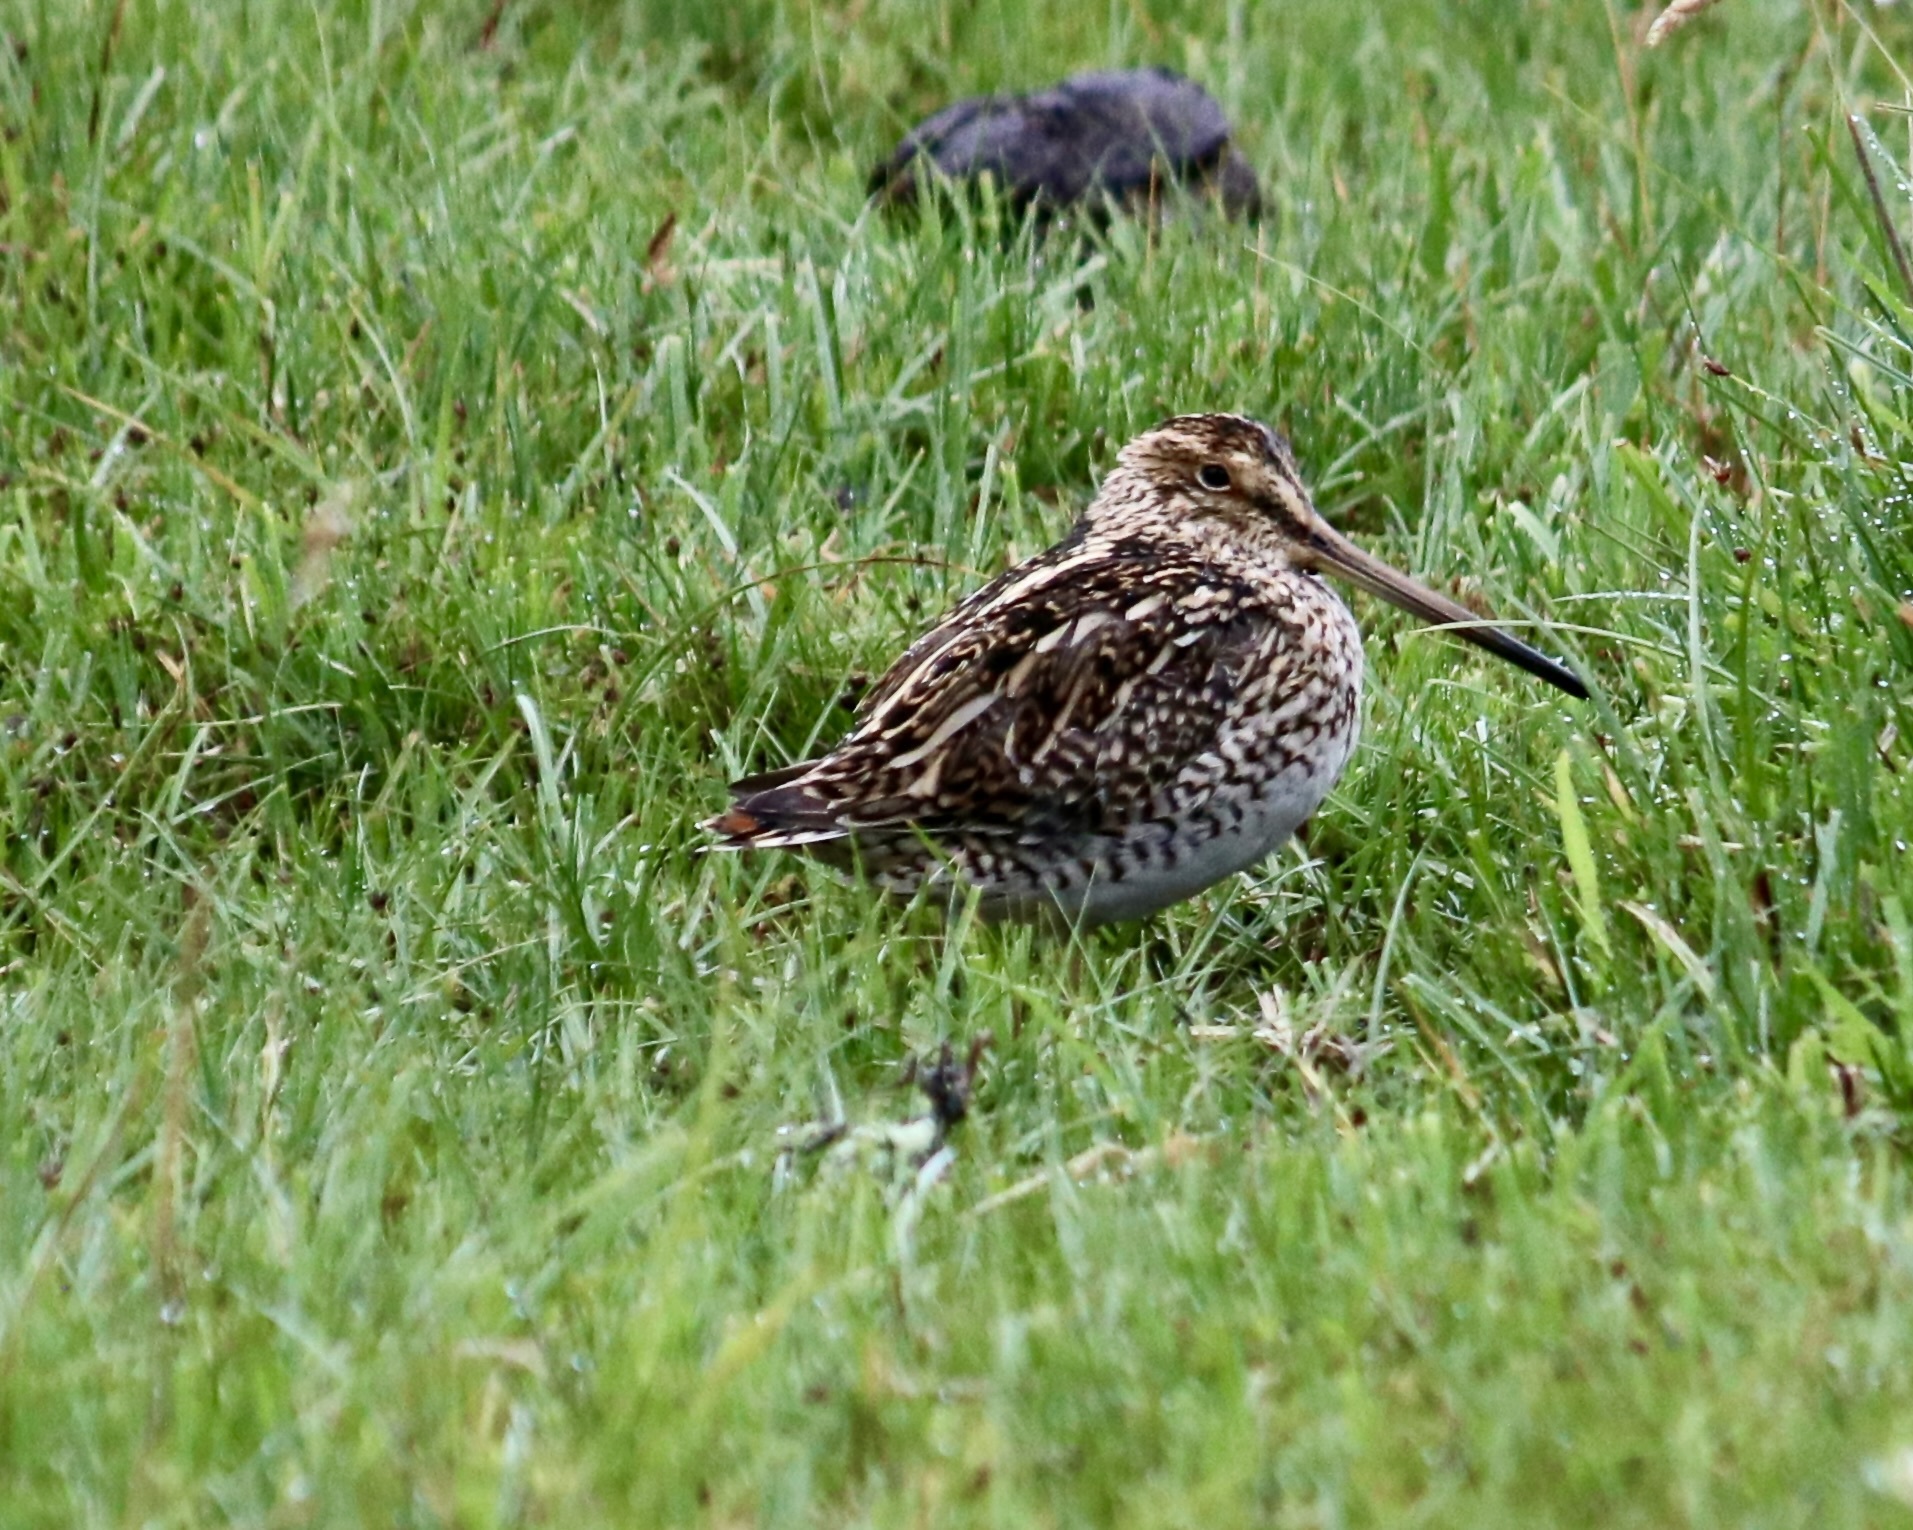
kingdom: Animalia
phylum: Chordata
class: Aves
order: Charadriiformes
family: Scolopacidae
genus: Gallinago
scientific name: Gallinago magellanica
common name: Magellanic snipe
